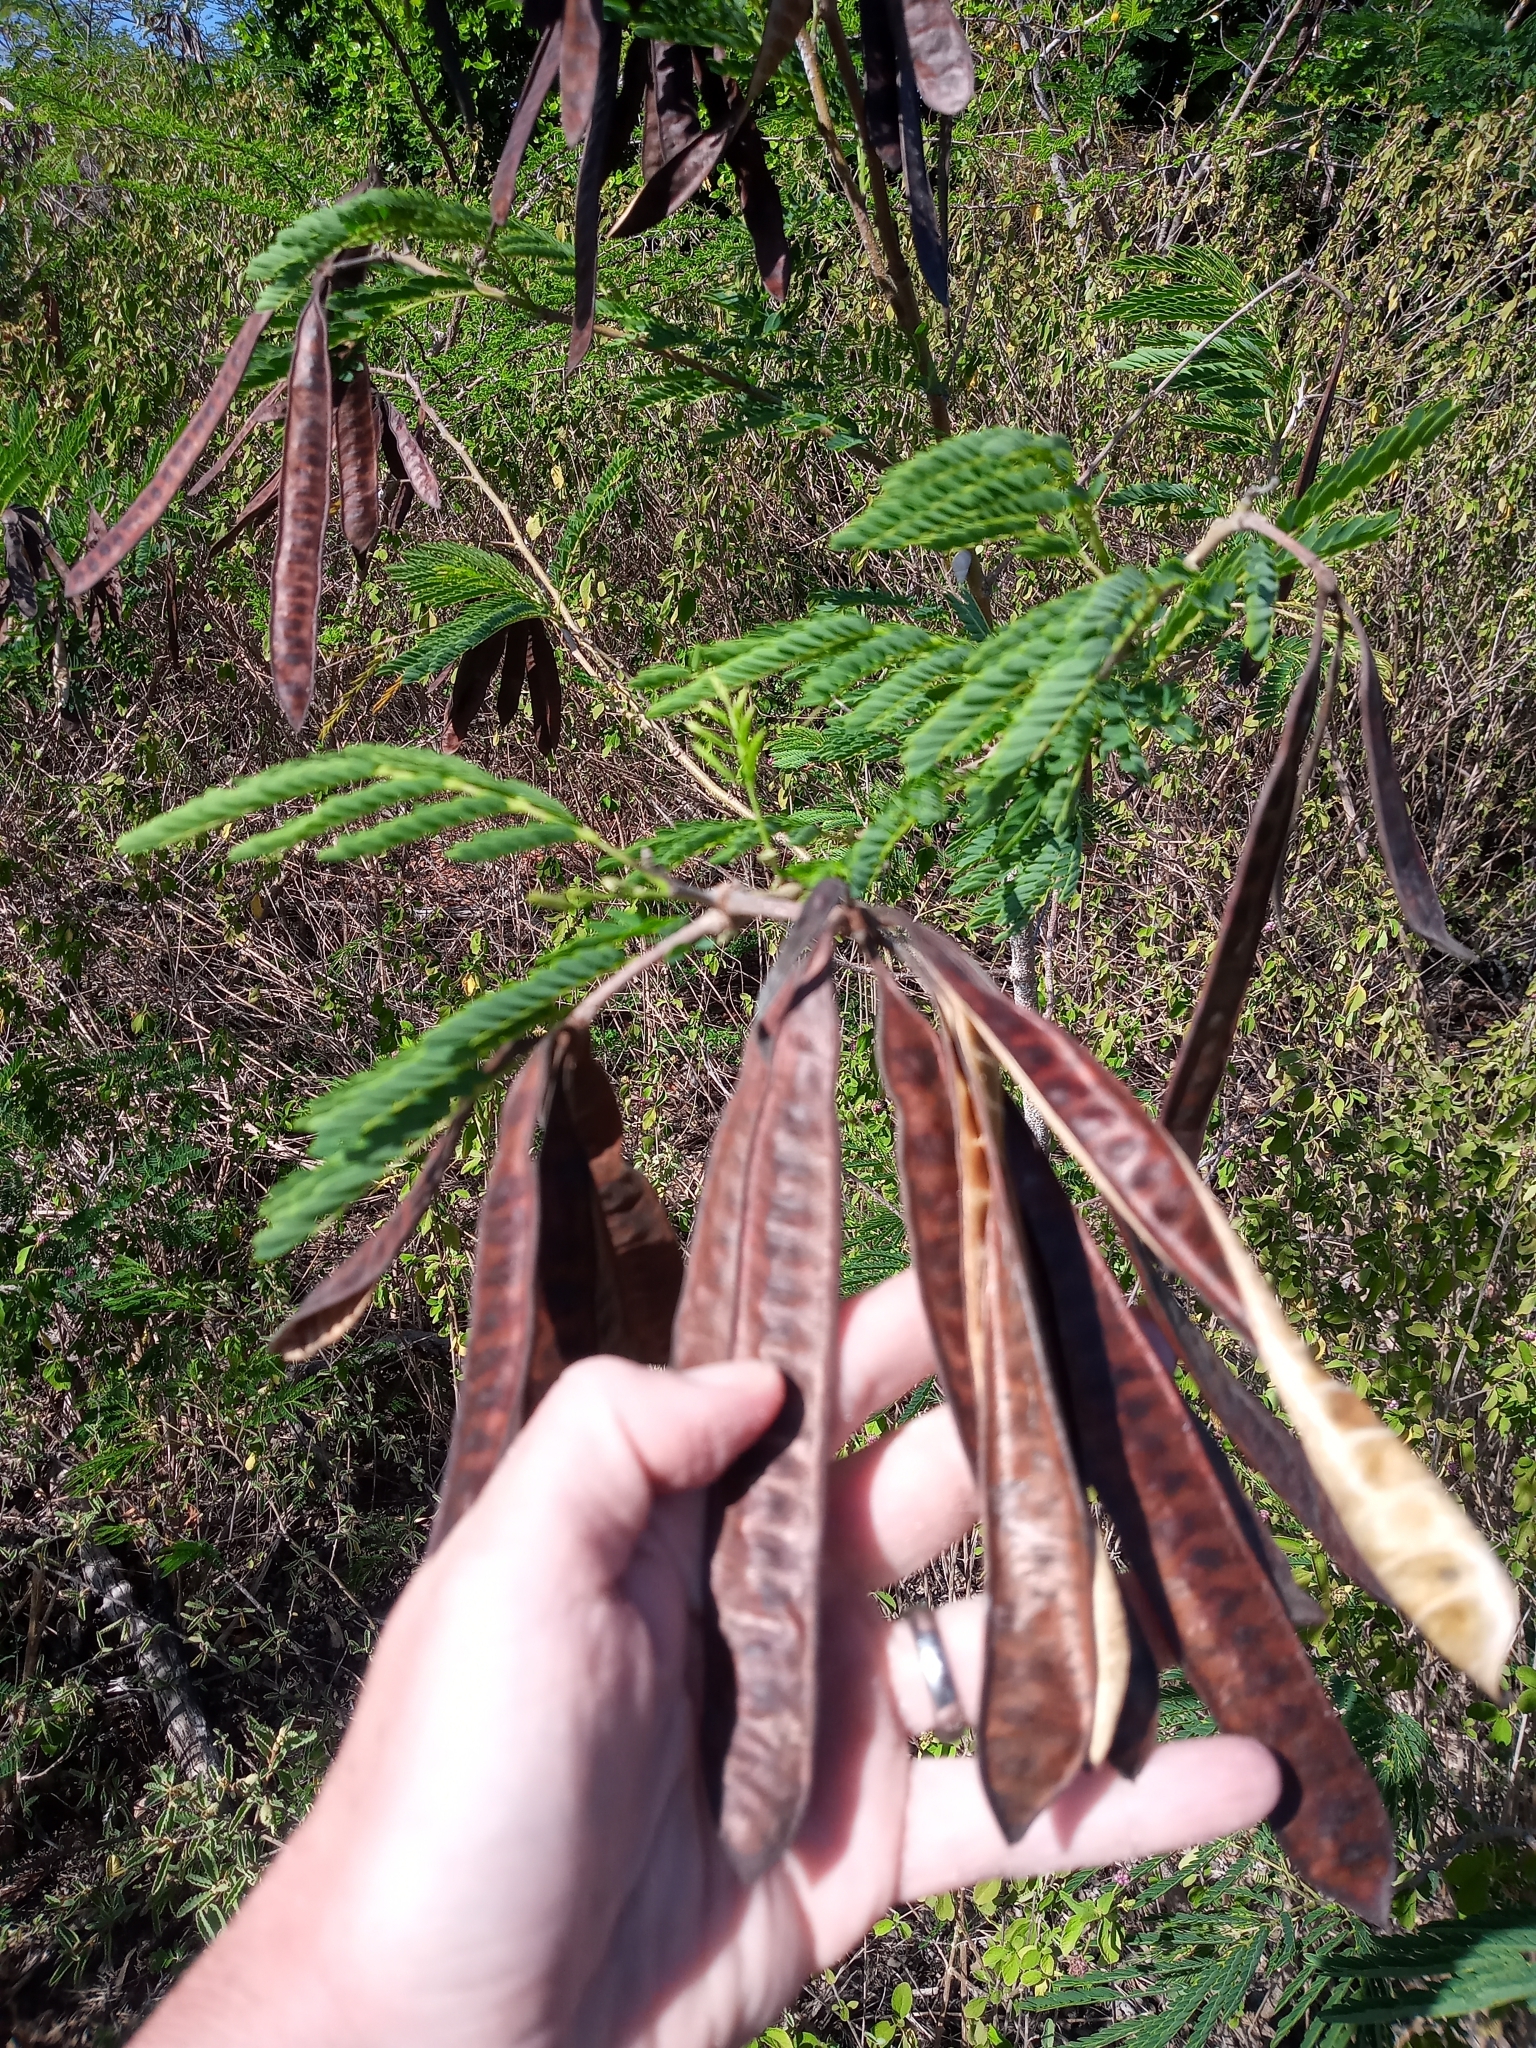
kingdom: Plantae
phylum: Tracheophyta
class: Magnoliopsida
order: Fabales
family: Fabaceae
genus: Leucaena
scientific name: Leucaena leucocephala
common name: White leadtree
